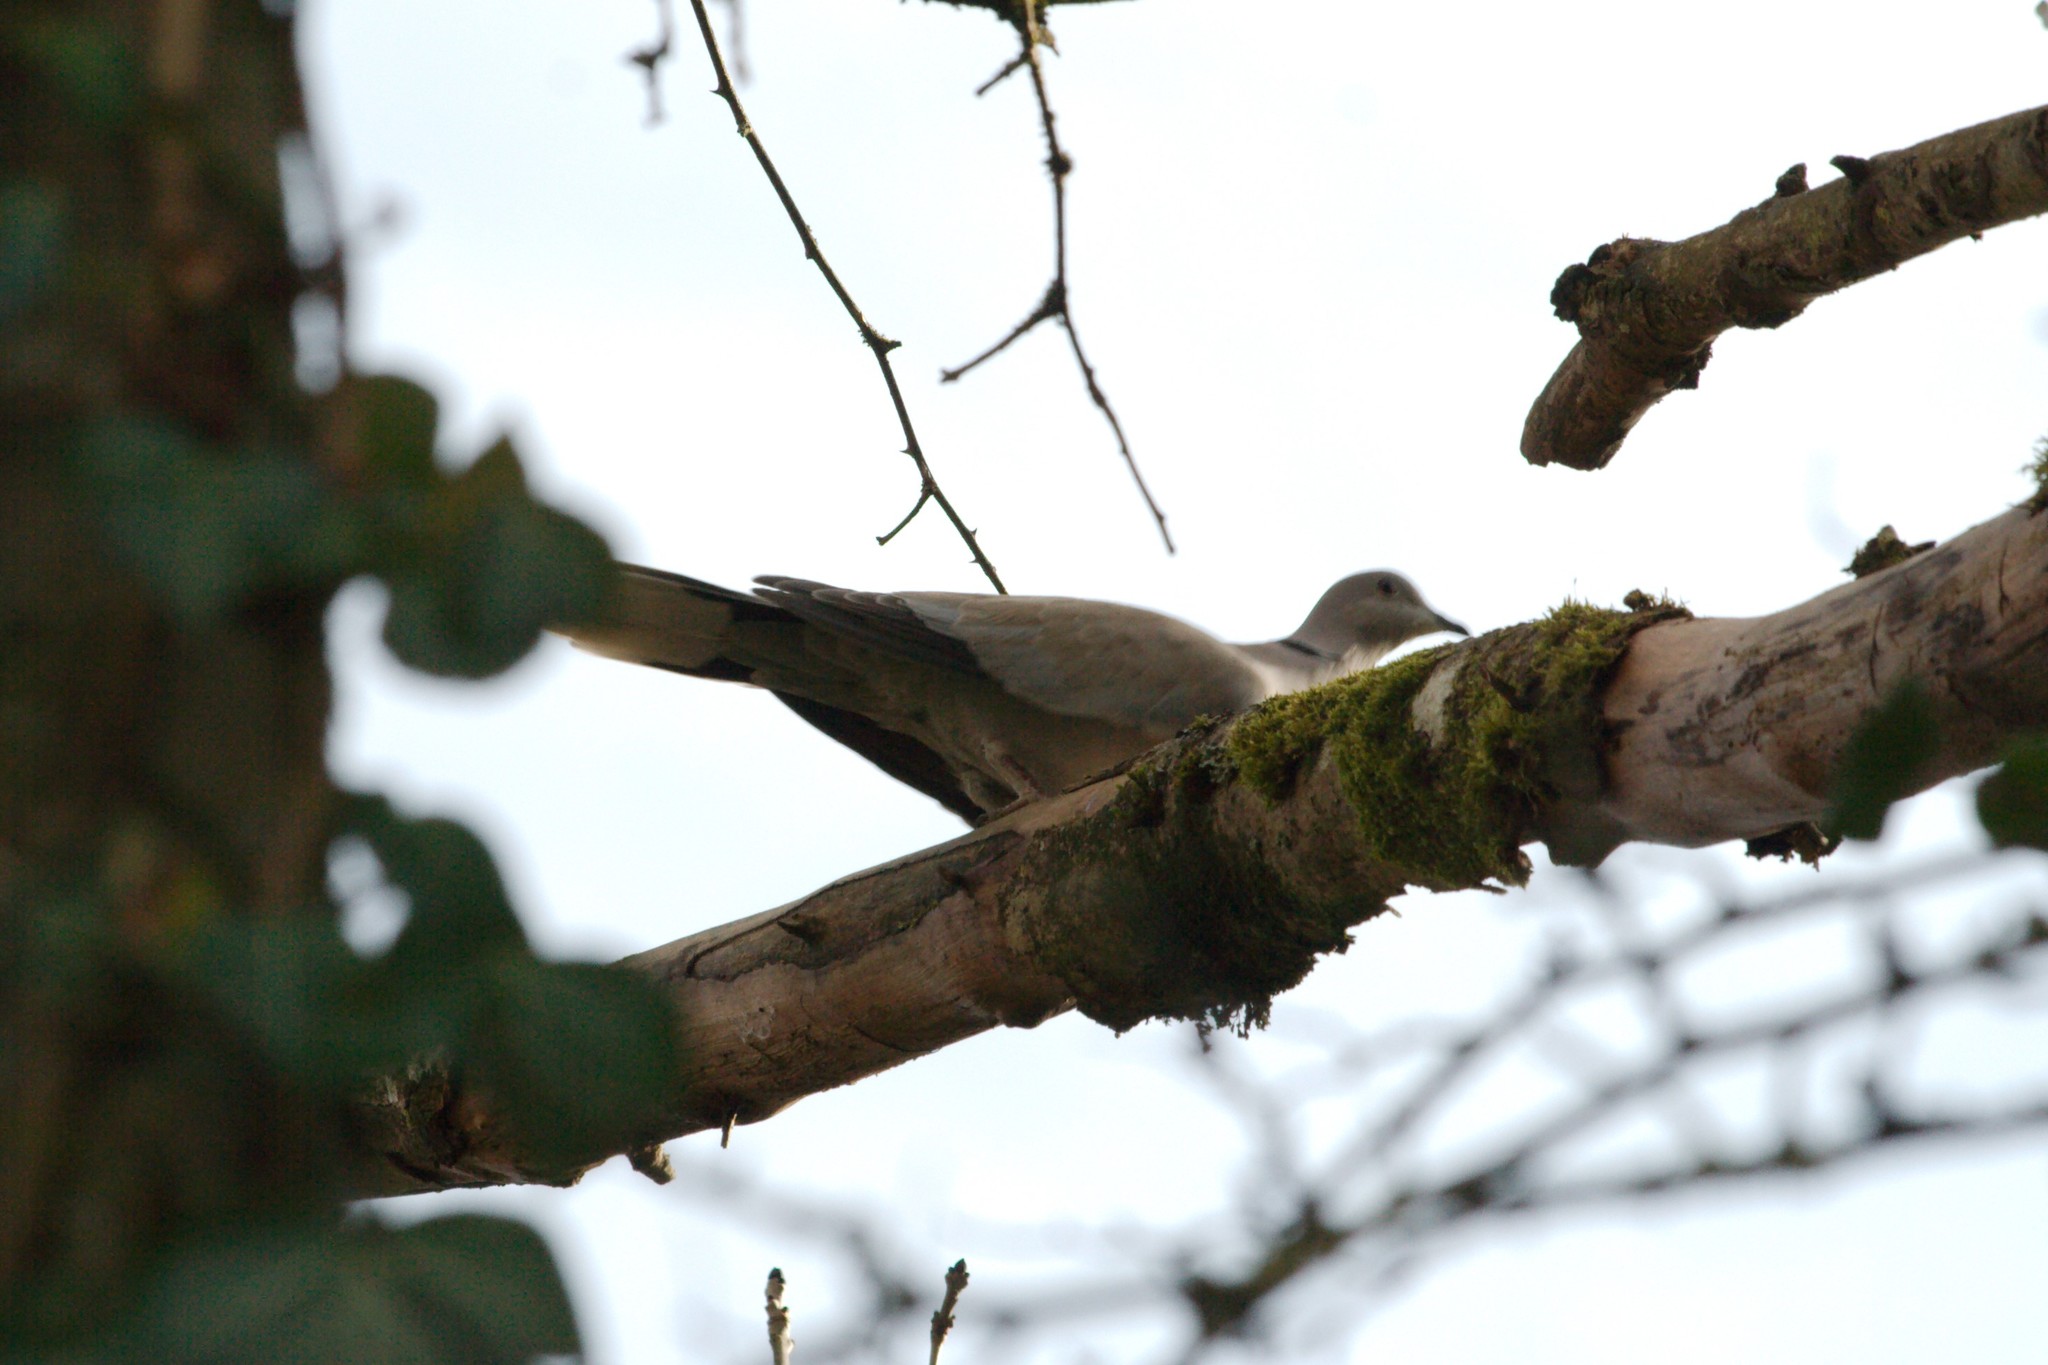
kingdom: Animalia
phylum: Chordata
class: Aves
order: Columbiformes
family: Columbidae
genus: Streptopelia
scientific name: Streptopelia decaocto
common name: Eurasian collared dove
